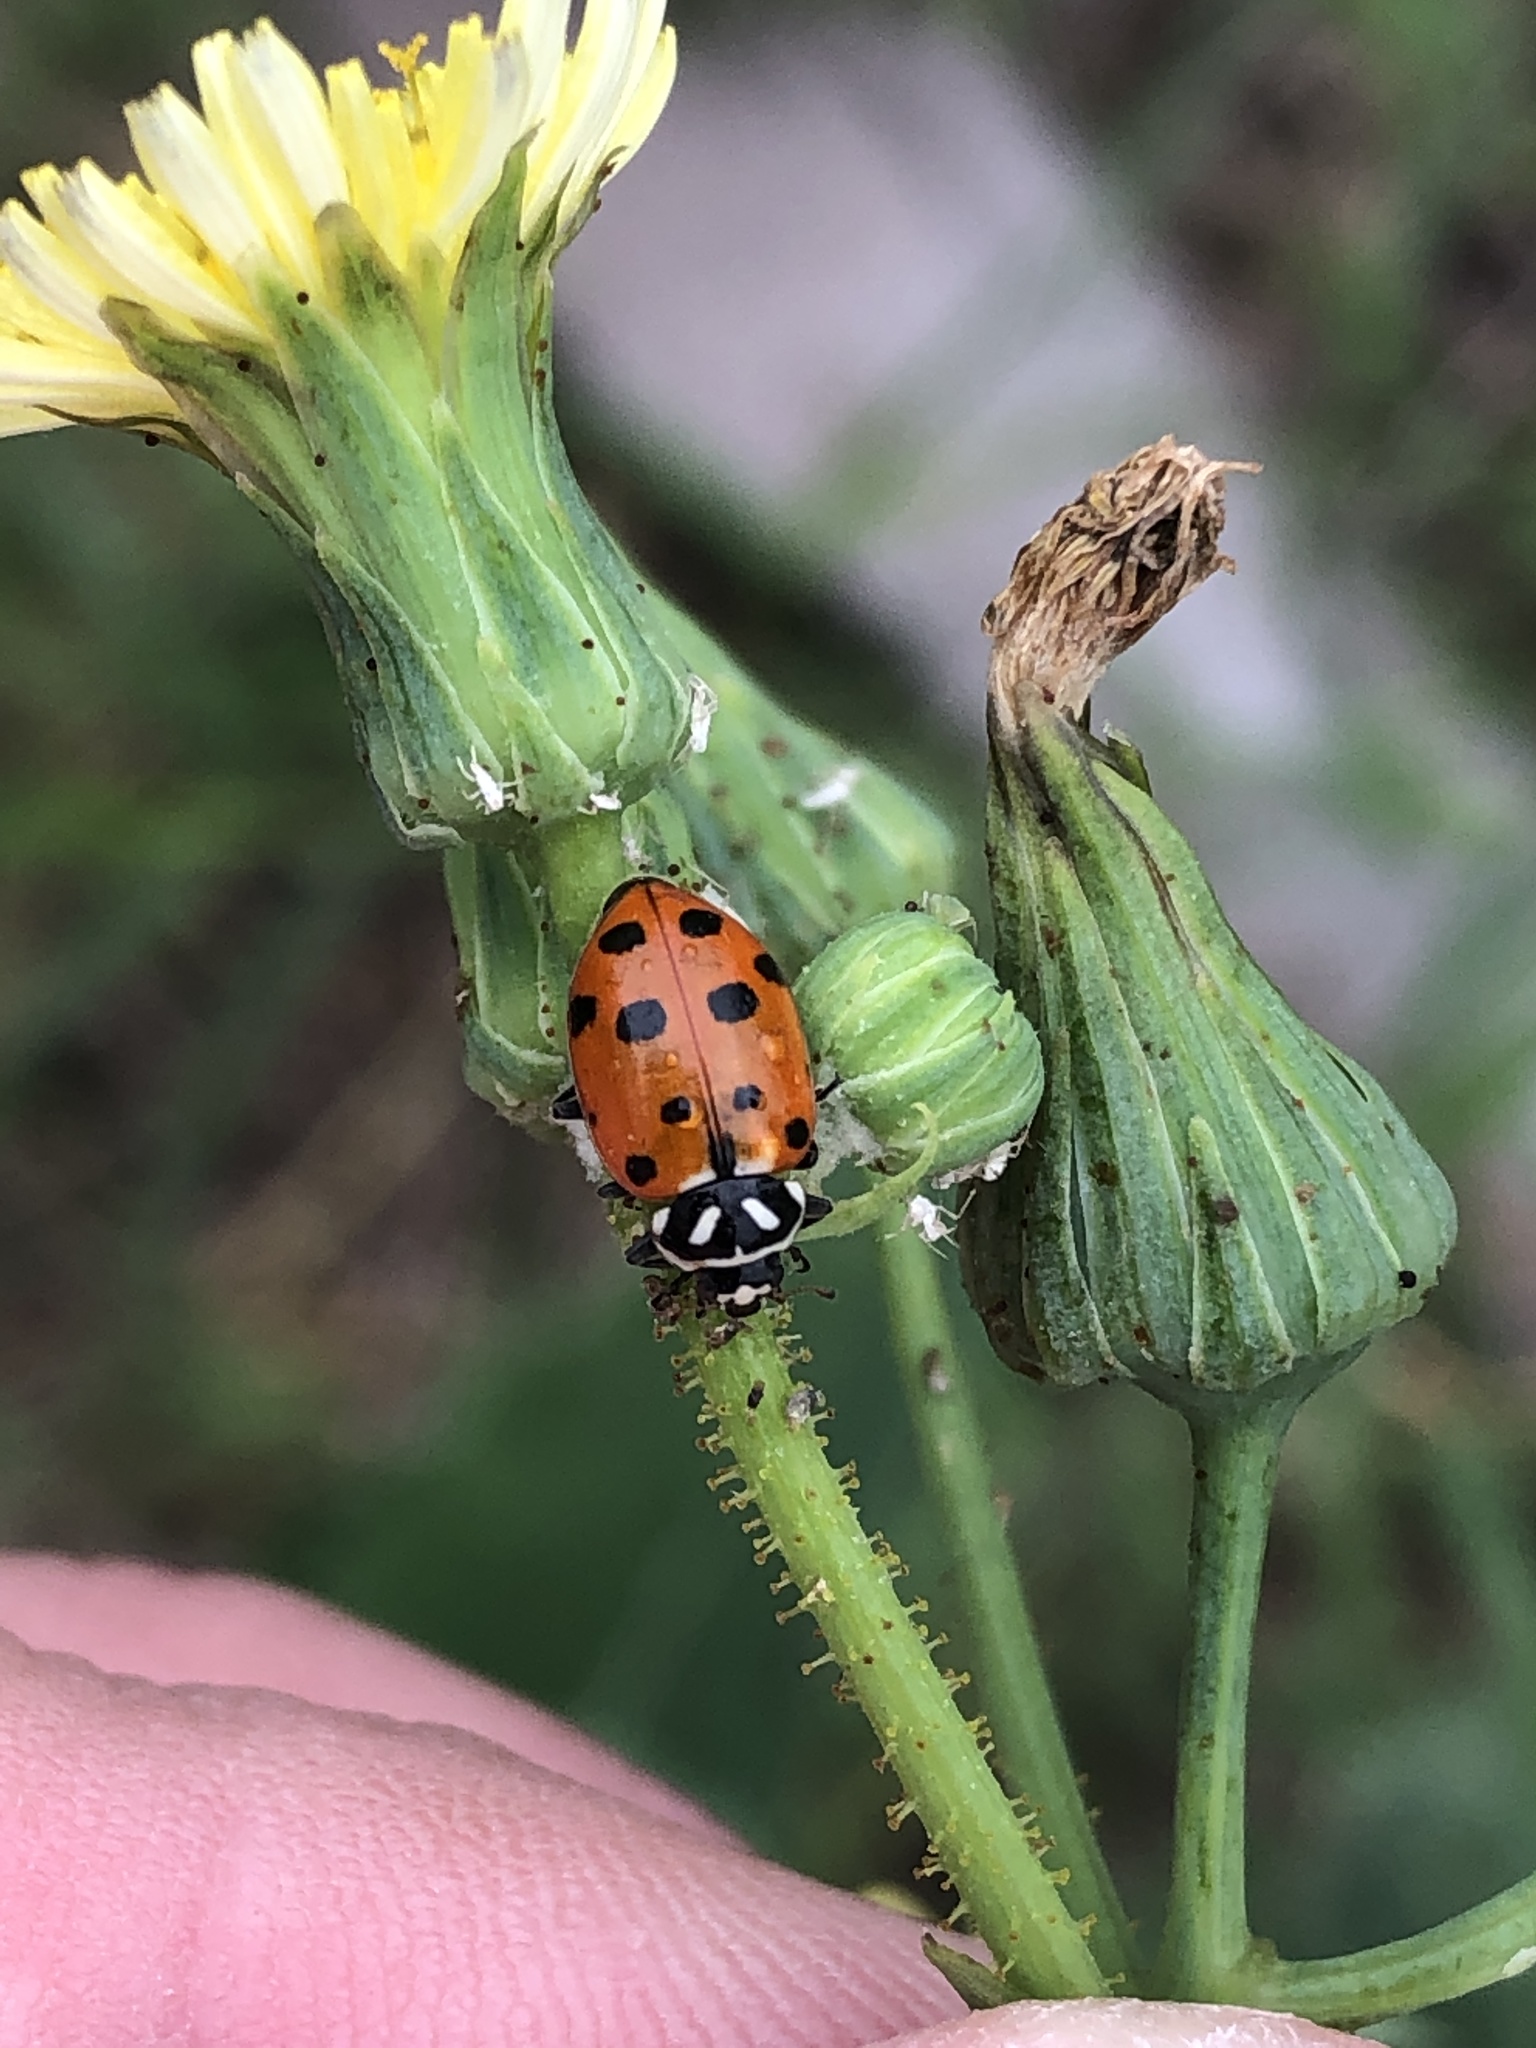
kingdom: Animalia
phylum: Arthropoda
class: Insecta
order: Coleoptera
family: Coccinellidae
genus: Hippodamia
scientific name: Hippodamia convergens
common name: Convergent lady beetle
